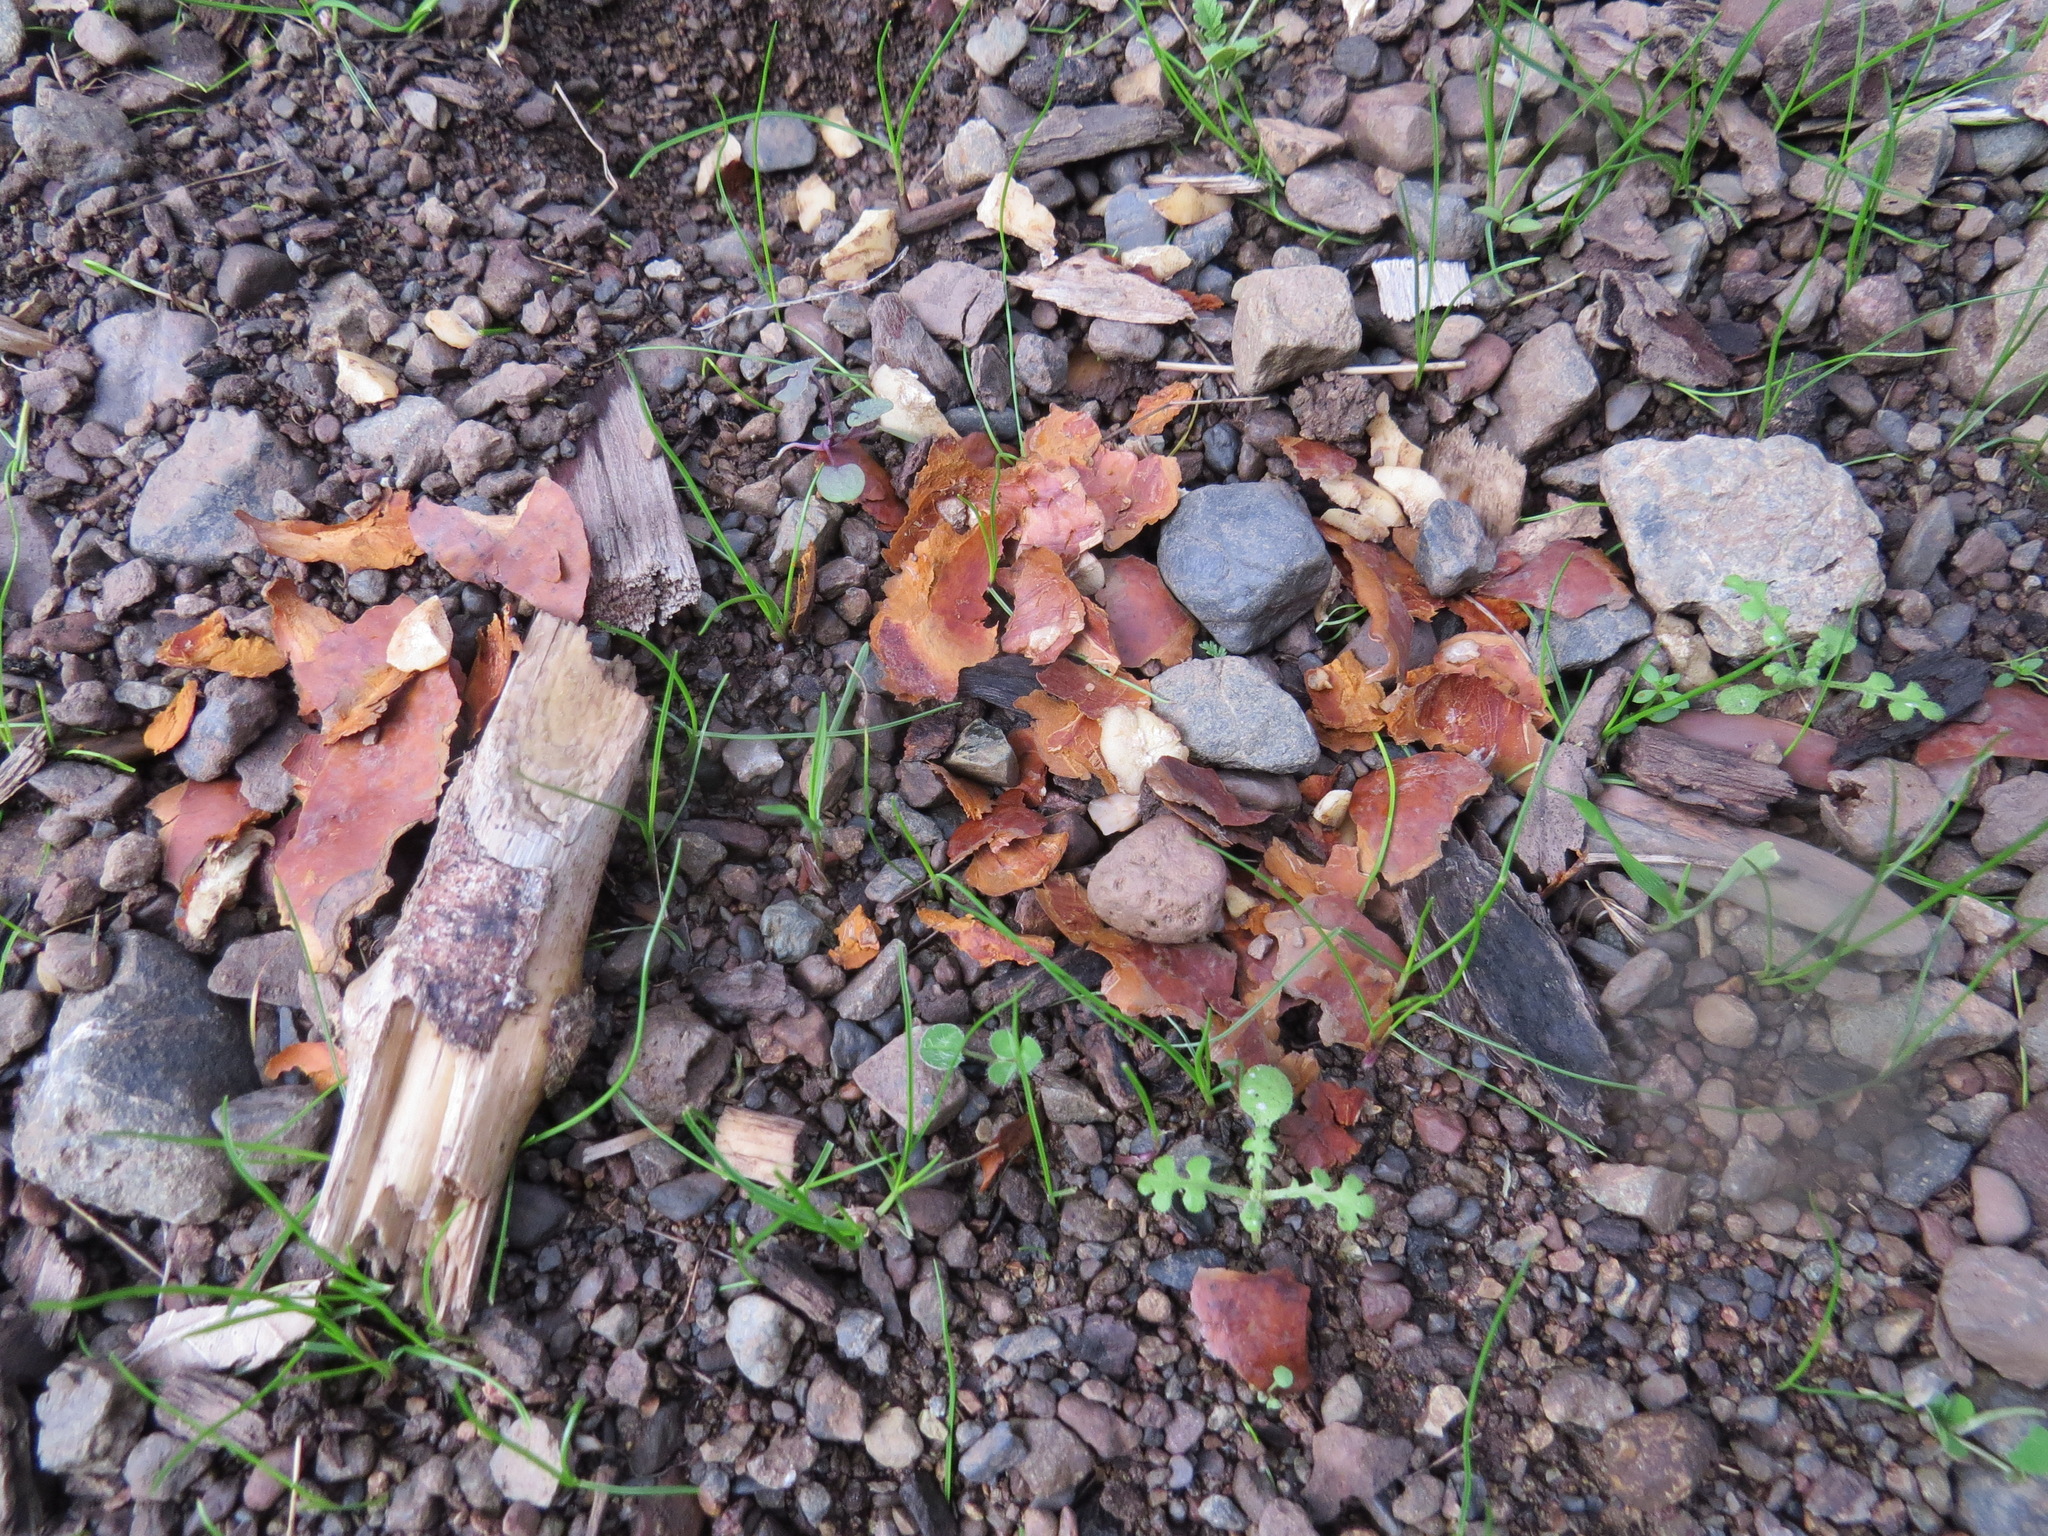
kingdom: Animalia
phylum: Chordata
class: Mammalia
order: Rodentia
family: Sciuridae
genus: Otospermophilus
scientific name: Otospermophilus beecheyi
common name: California ground squirrel
